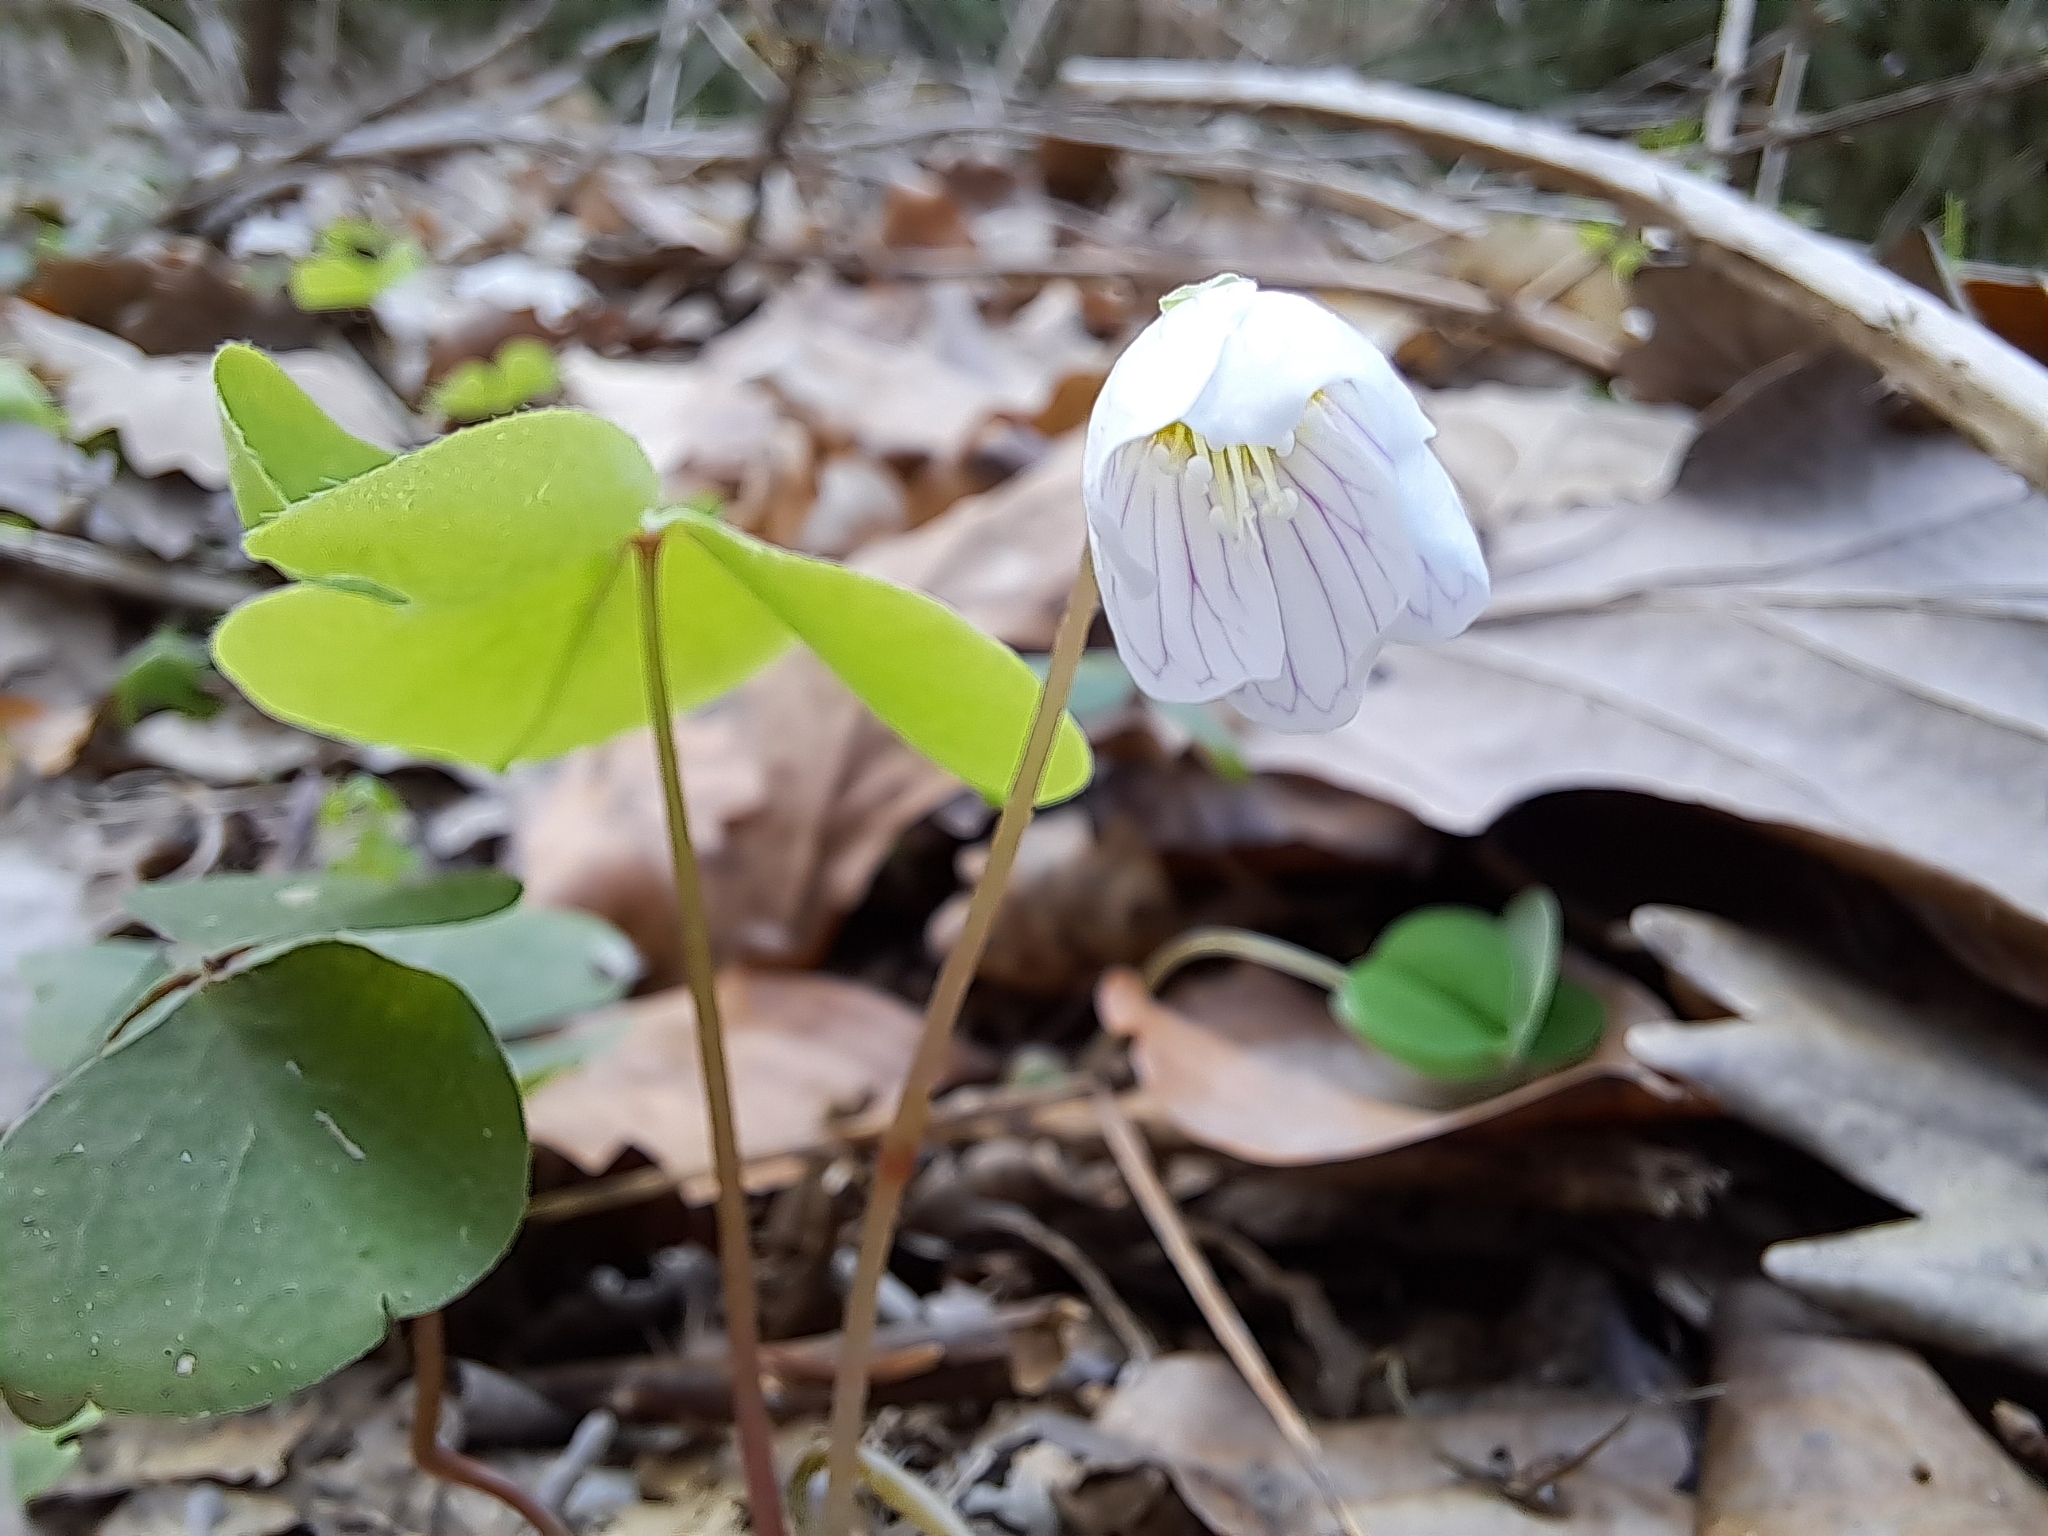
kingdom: Plantae
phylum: Tracheophyta
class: Magnoliopsida
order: Oxalidales
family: Oxalidaceae
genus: Oxalis
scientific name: Oxalis acetosella
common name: Wood-sorrel
